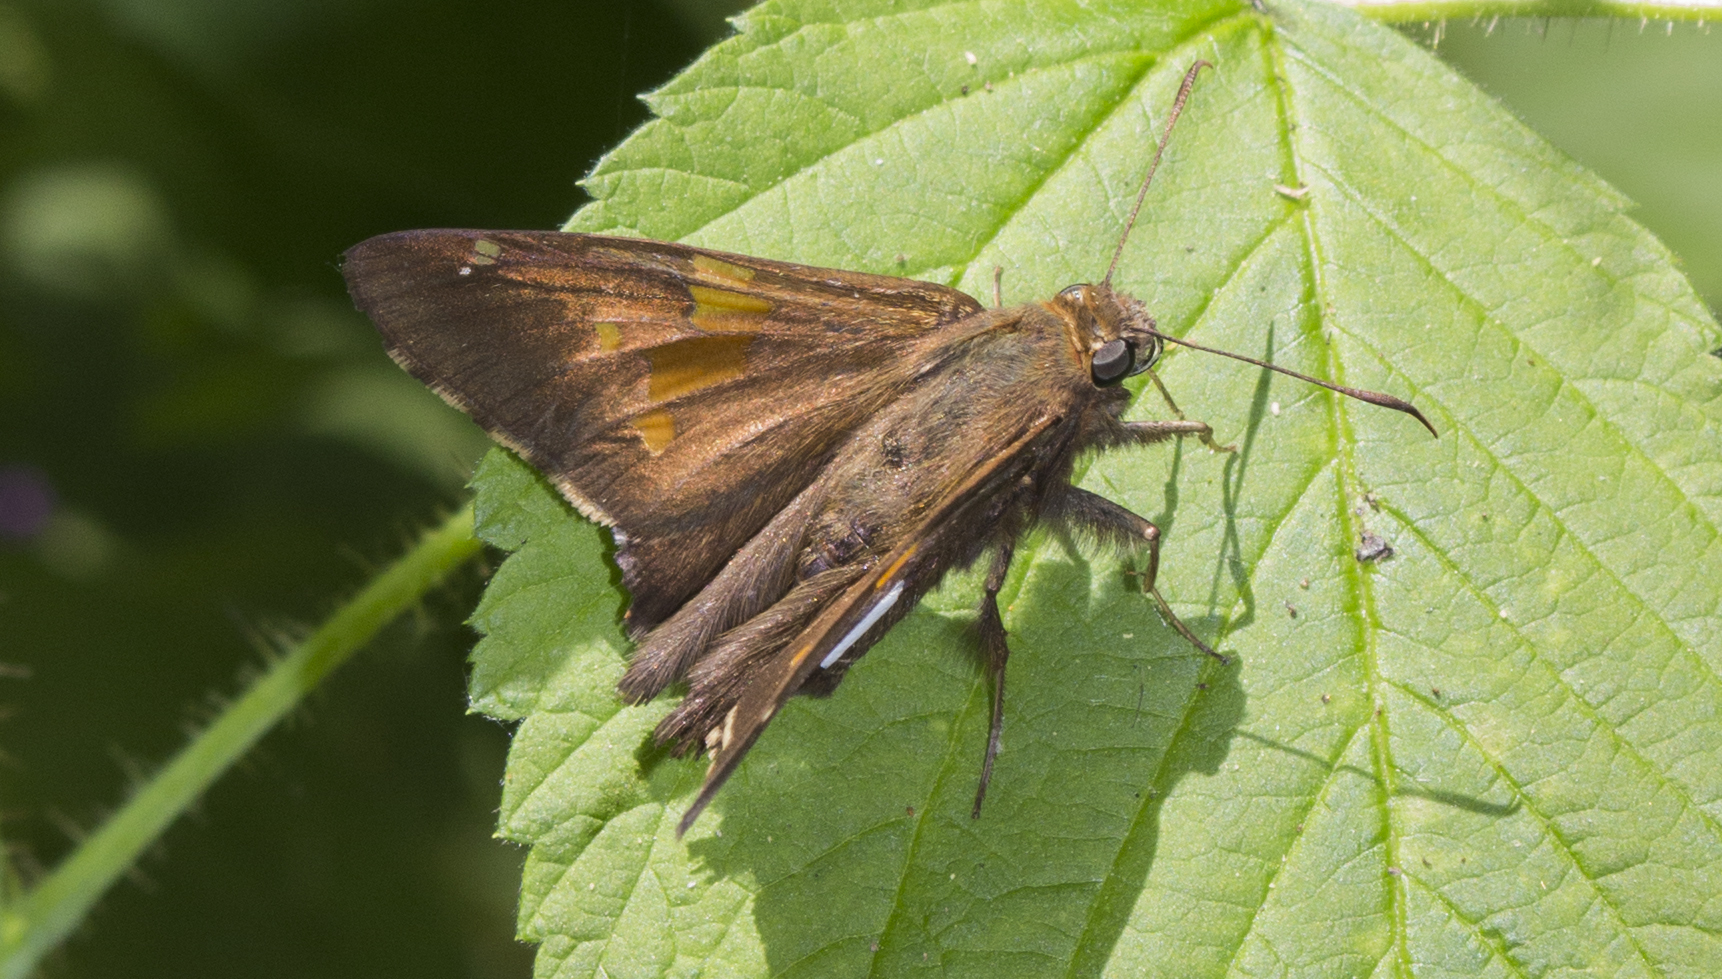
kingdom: Animalia
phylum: Arthropoda
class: Insecta
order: Lepidoptera
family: Hesperiidae
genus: Epargyreus
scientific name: Epargyreus clarus
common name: Silver-spotted skipper
